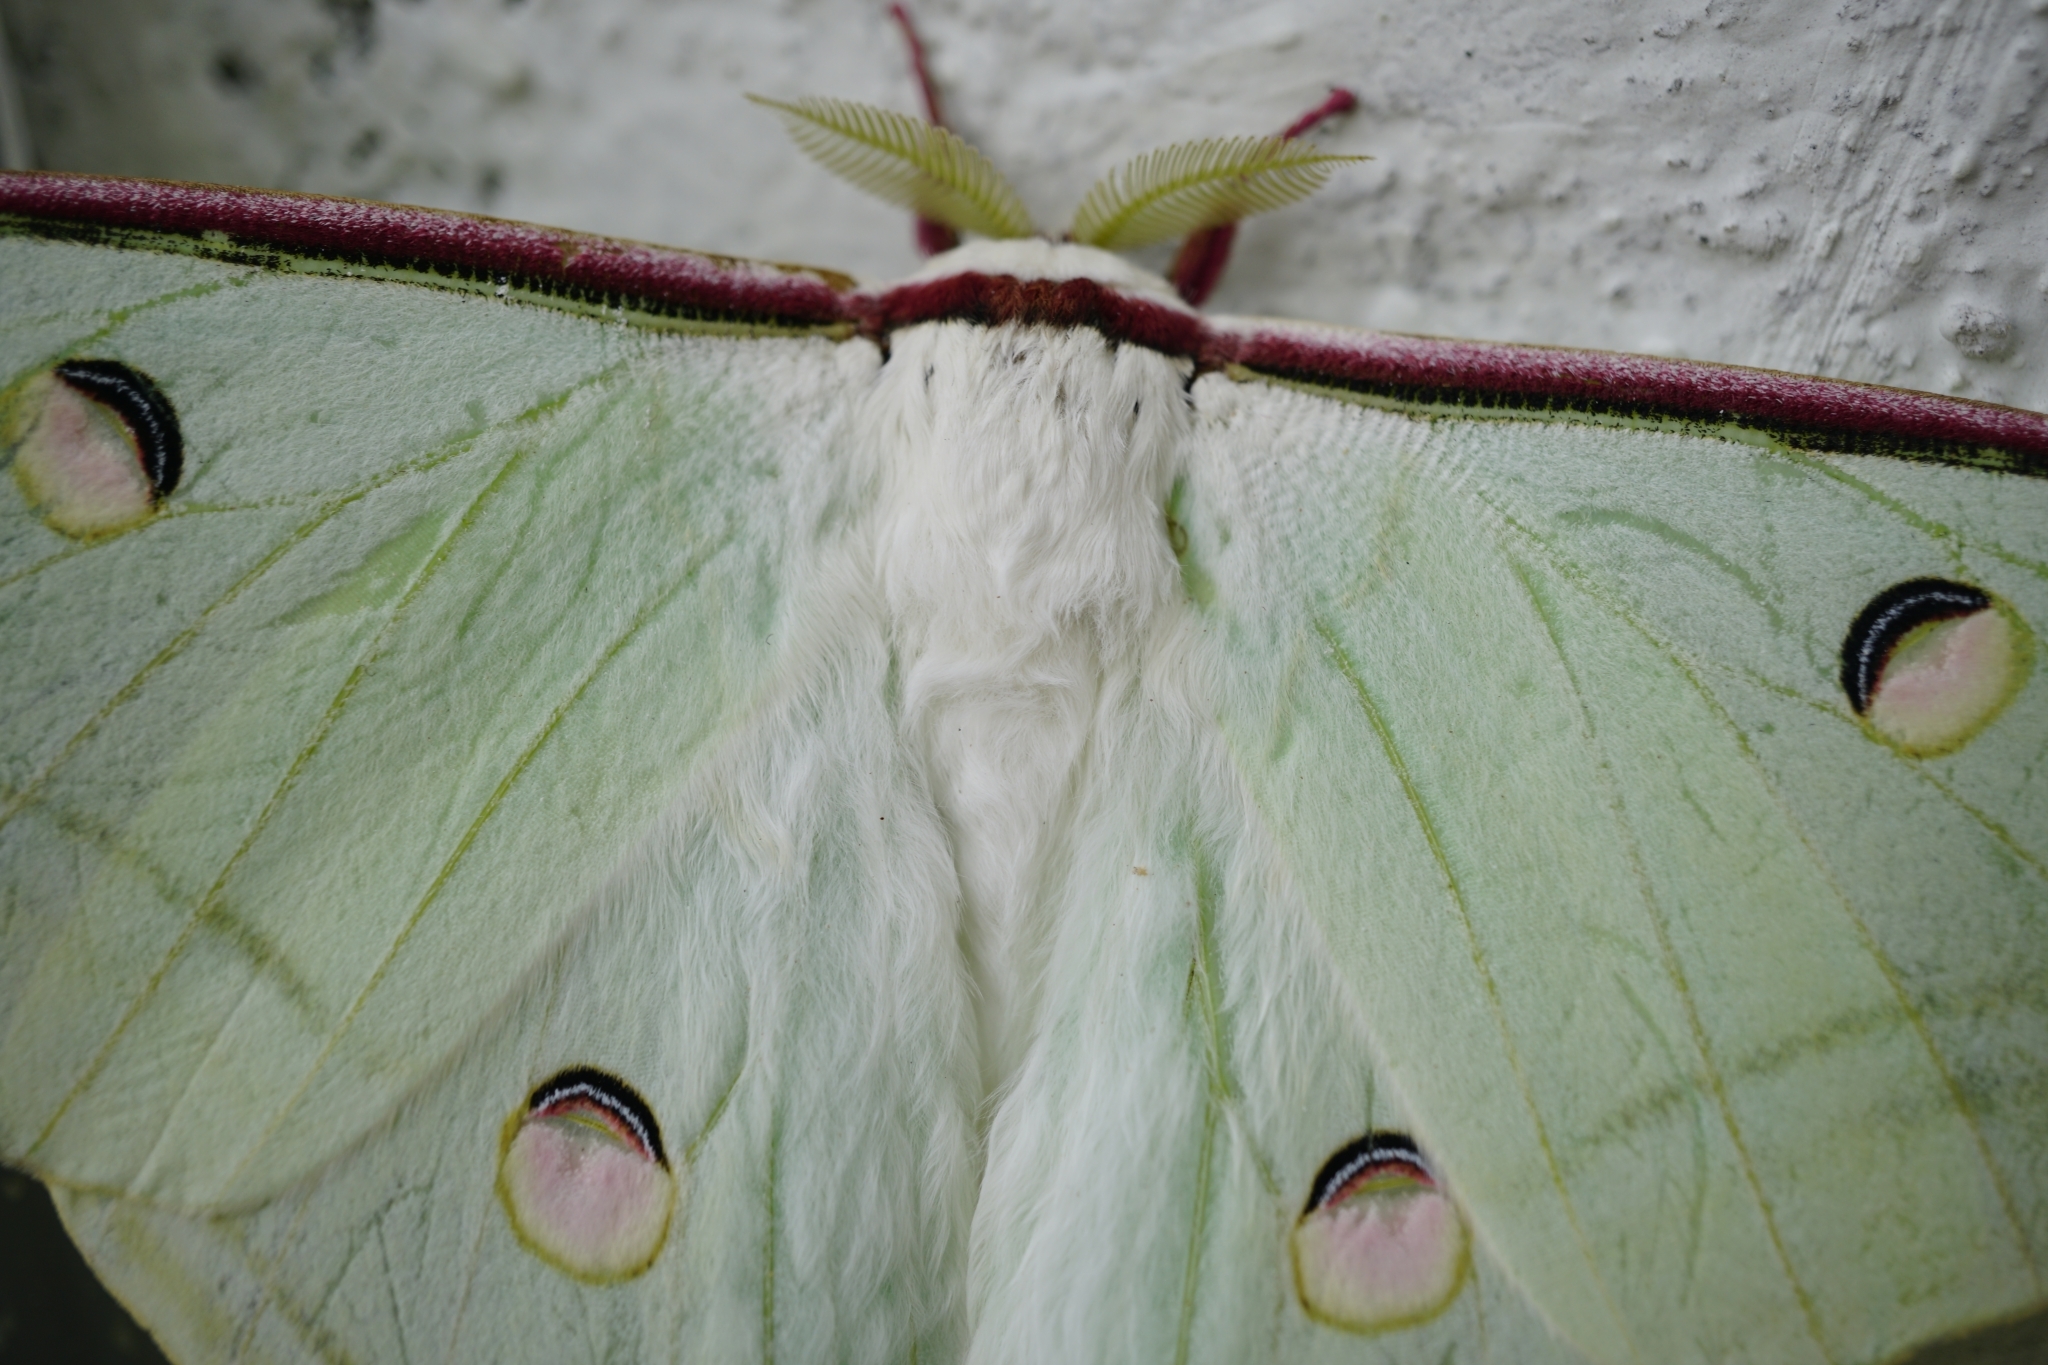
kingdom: Animalia
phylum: Arthropoda
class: Insecta
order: Lepidoptera
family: Saturniidae
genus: Actias
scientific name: Actias selene
